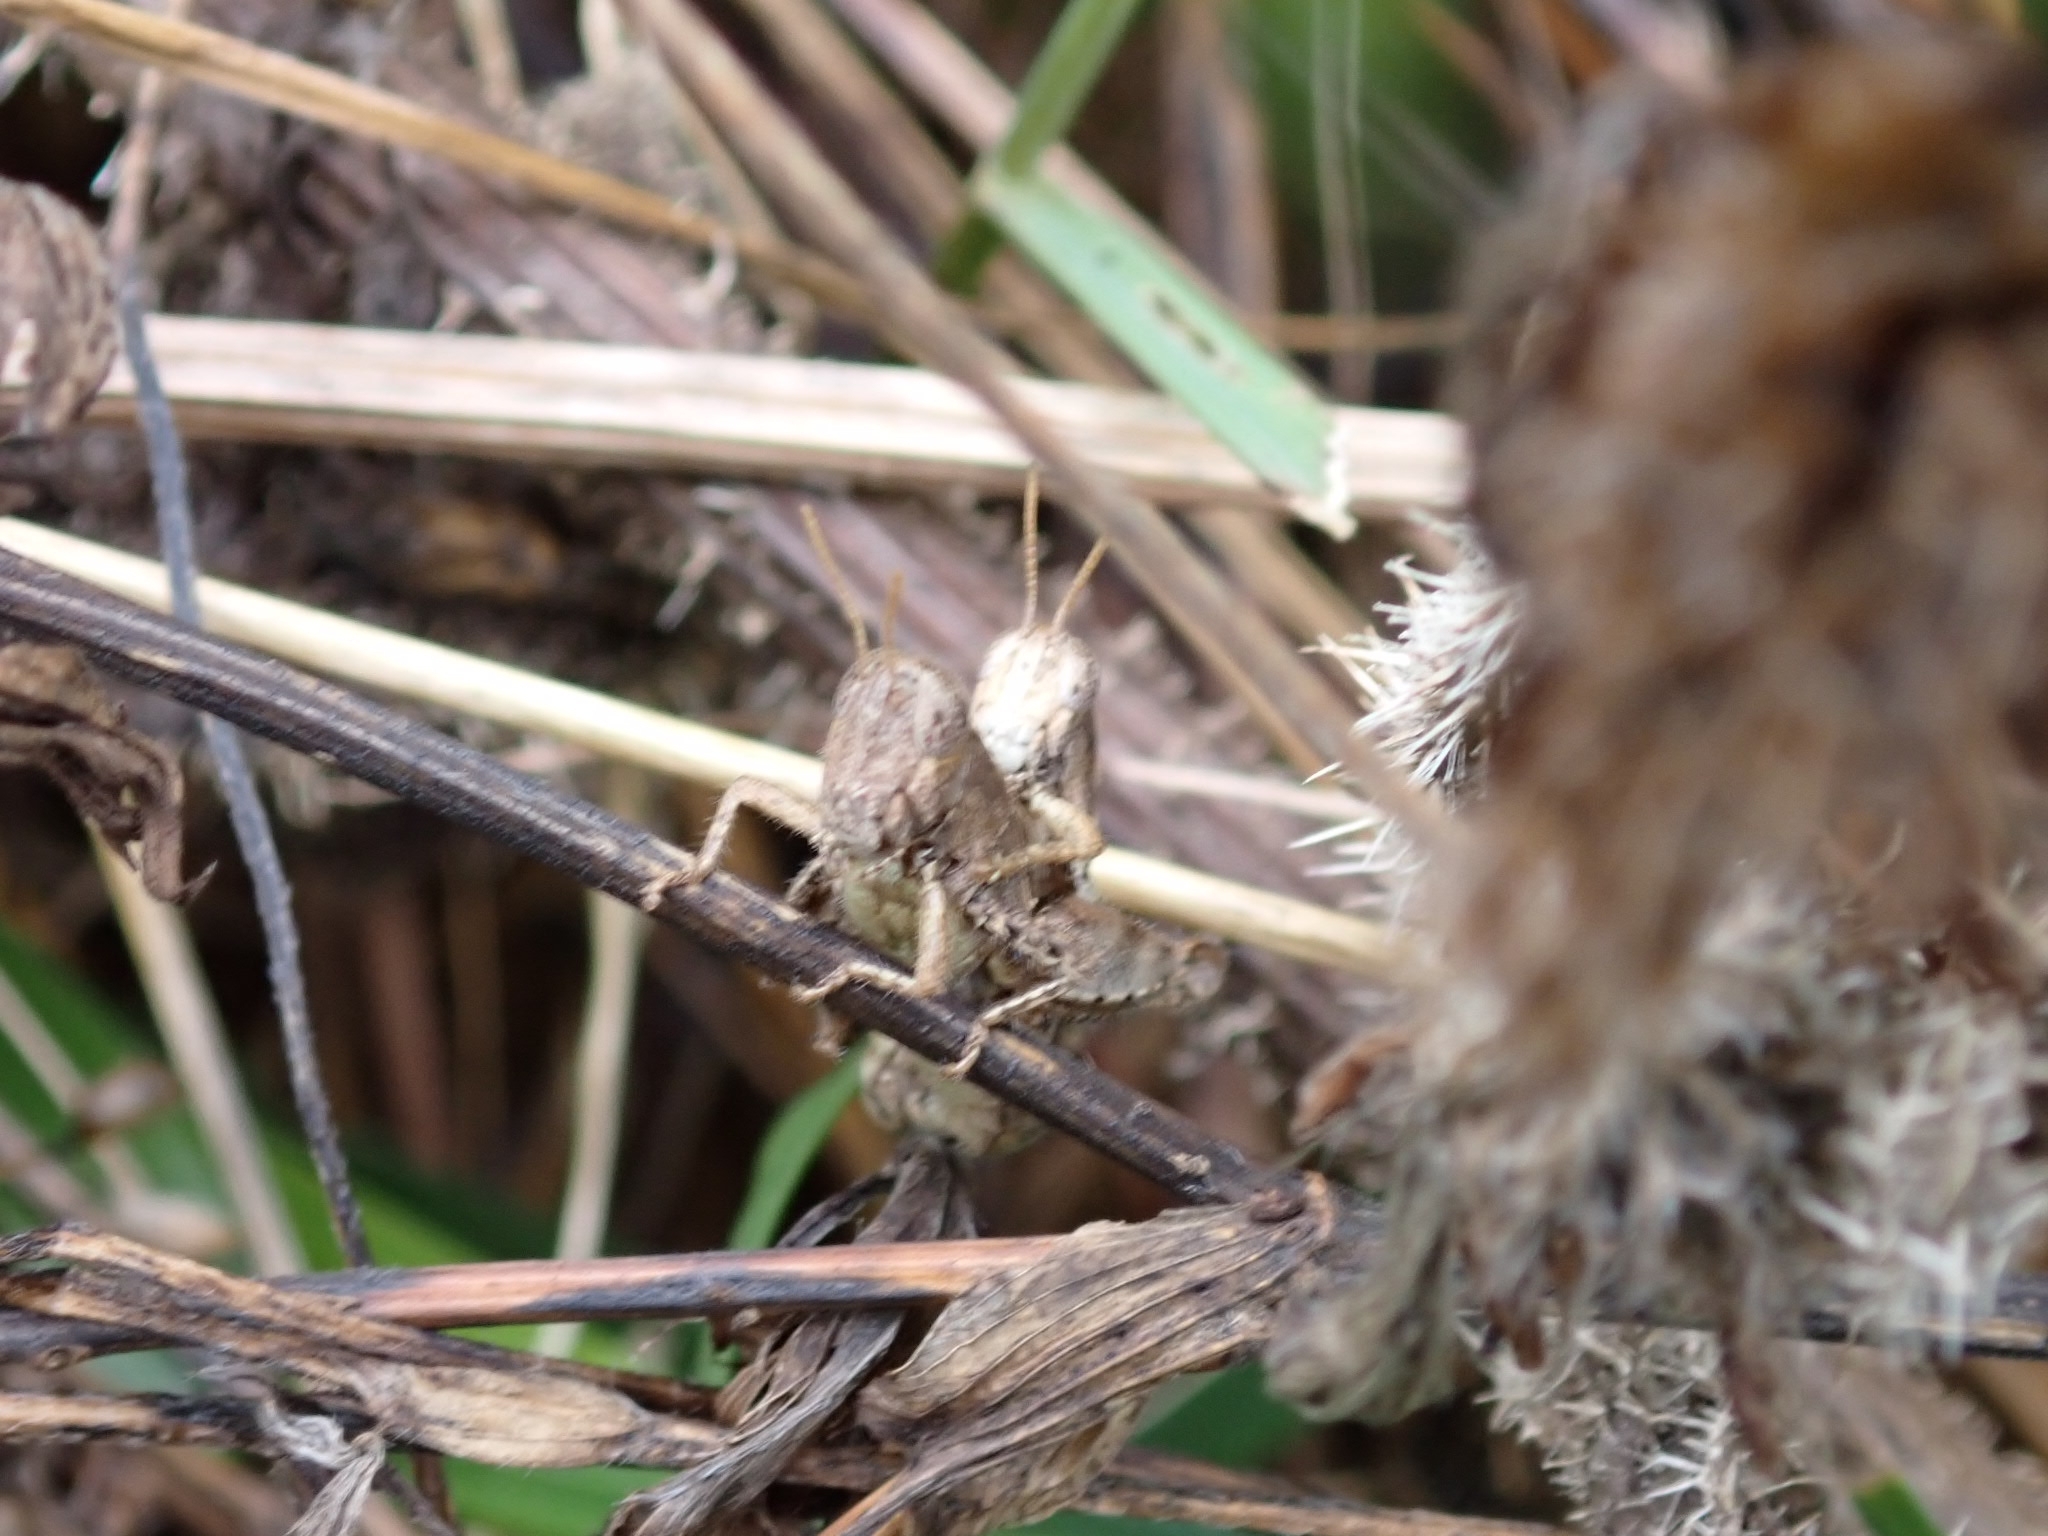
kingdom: Animalia
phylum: Arthropoda
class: Insecta
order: Orthoptera
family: Acrididae
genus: Pezotettix
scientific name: Pezotettix giornae
